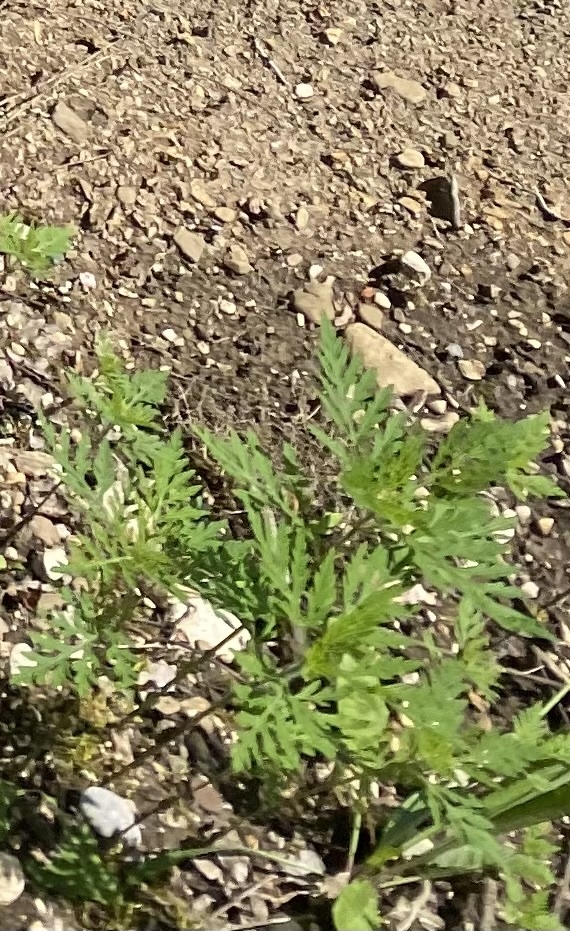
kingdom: Plantae
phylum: Tracheophyta
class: Magnoliopsida
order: Asterales
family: Asteraceae
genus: Ambrosia
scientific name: Ambrosia artemisiifolia
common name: Annual ragweed
